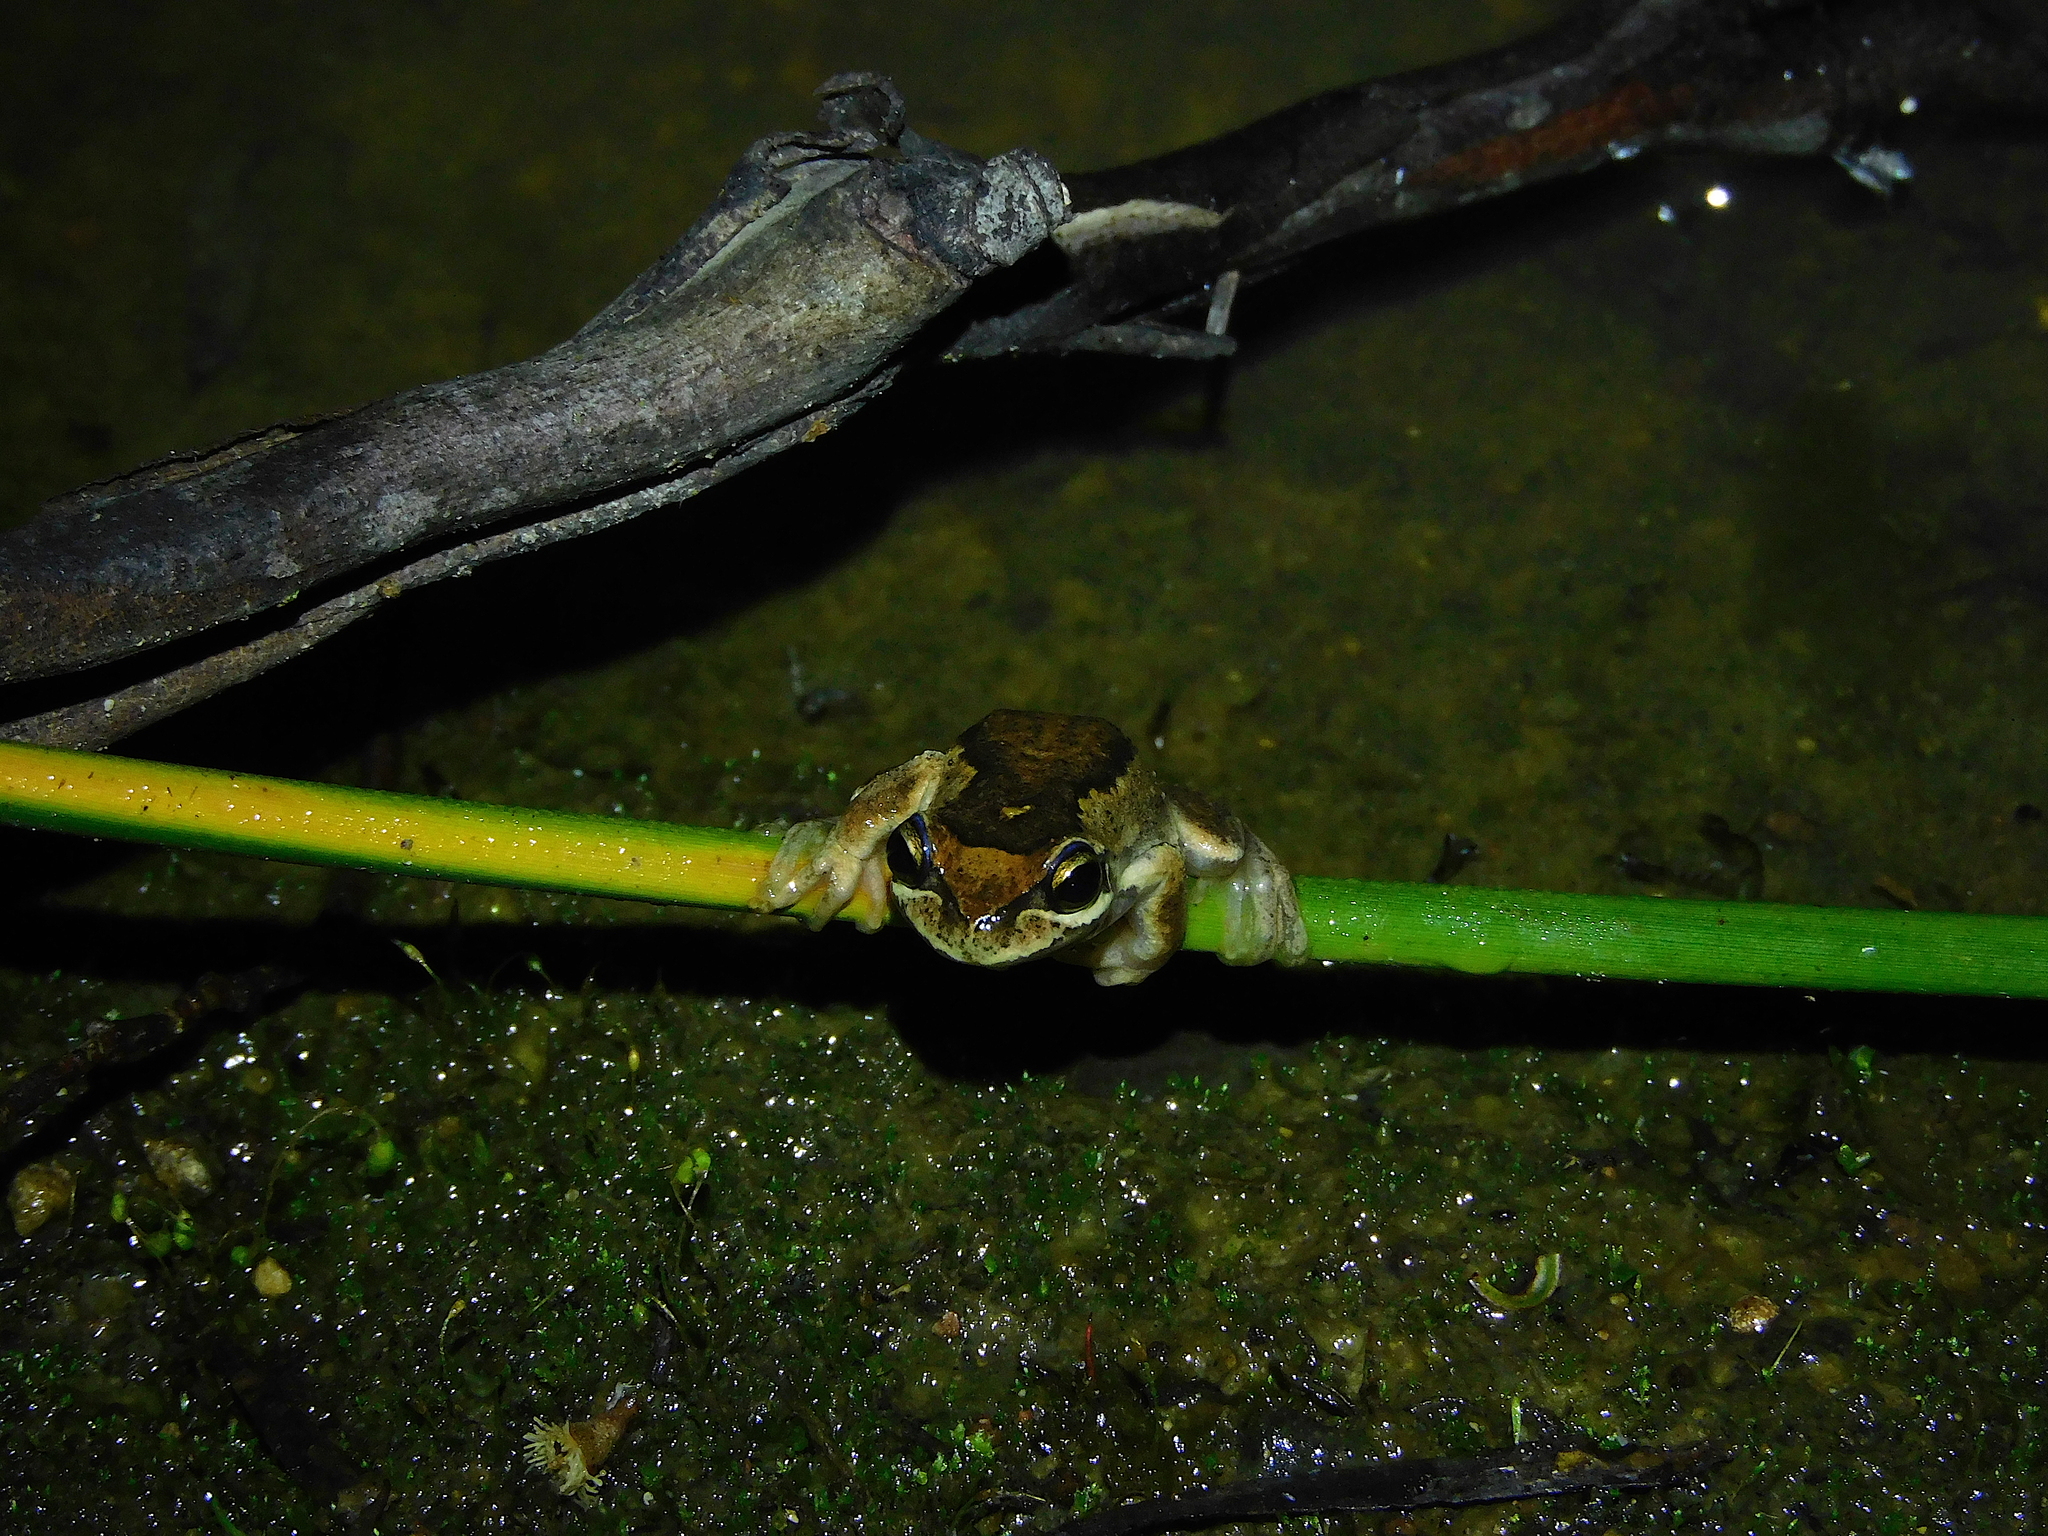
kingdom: Animalia
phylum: Chordata
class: Amphibia
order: Anura
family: Pelodryadidae
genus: Litoria
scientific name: Litoria ewingii
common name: Southern brown tree frog
